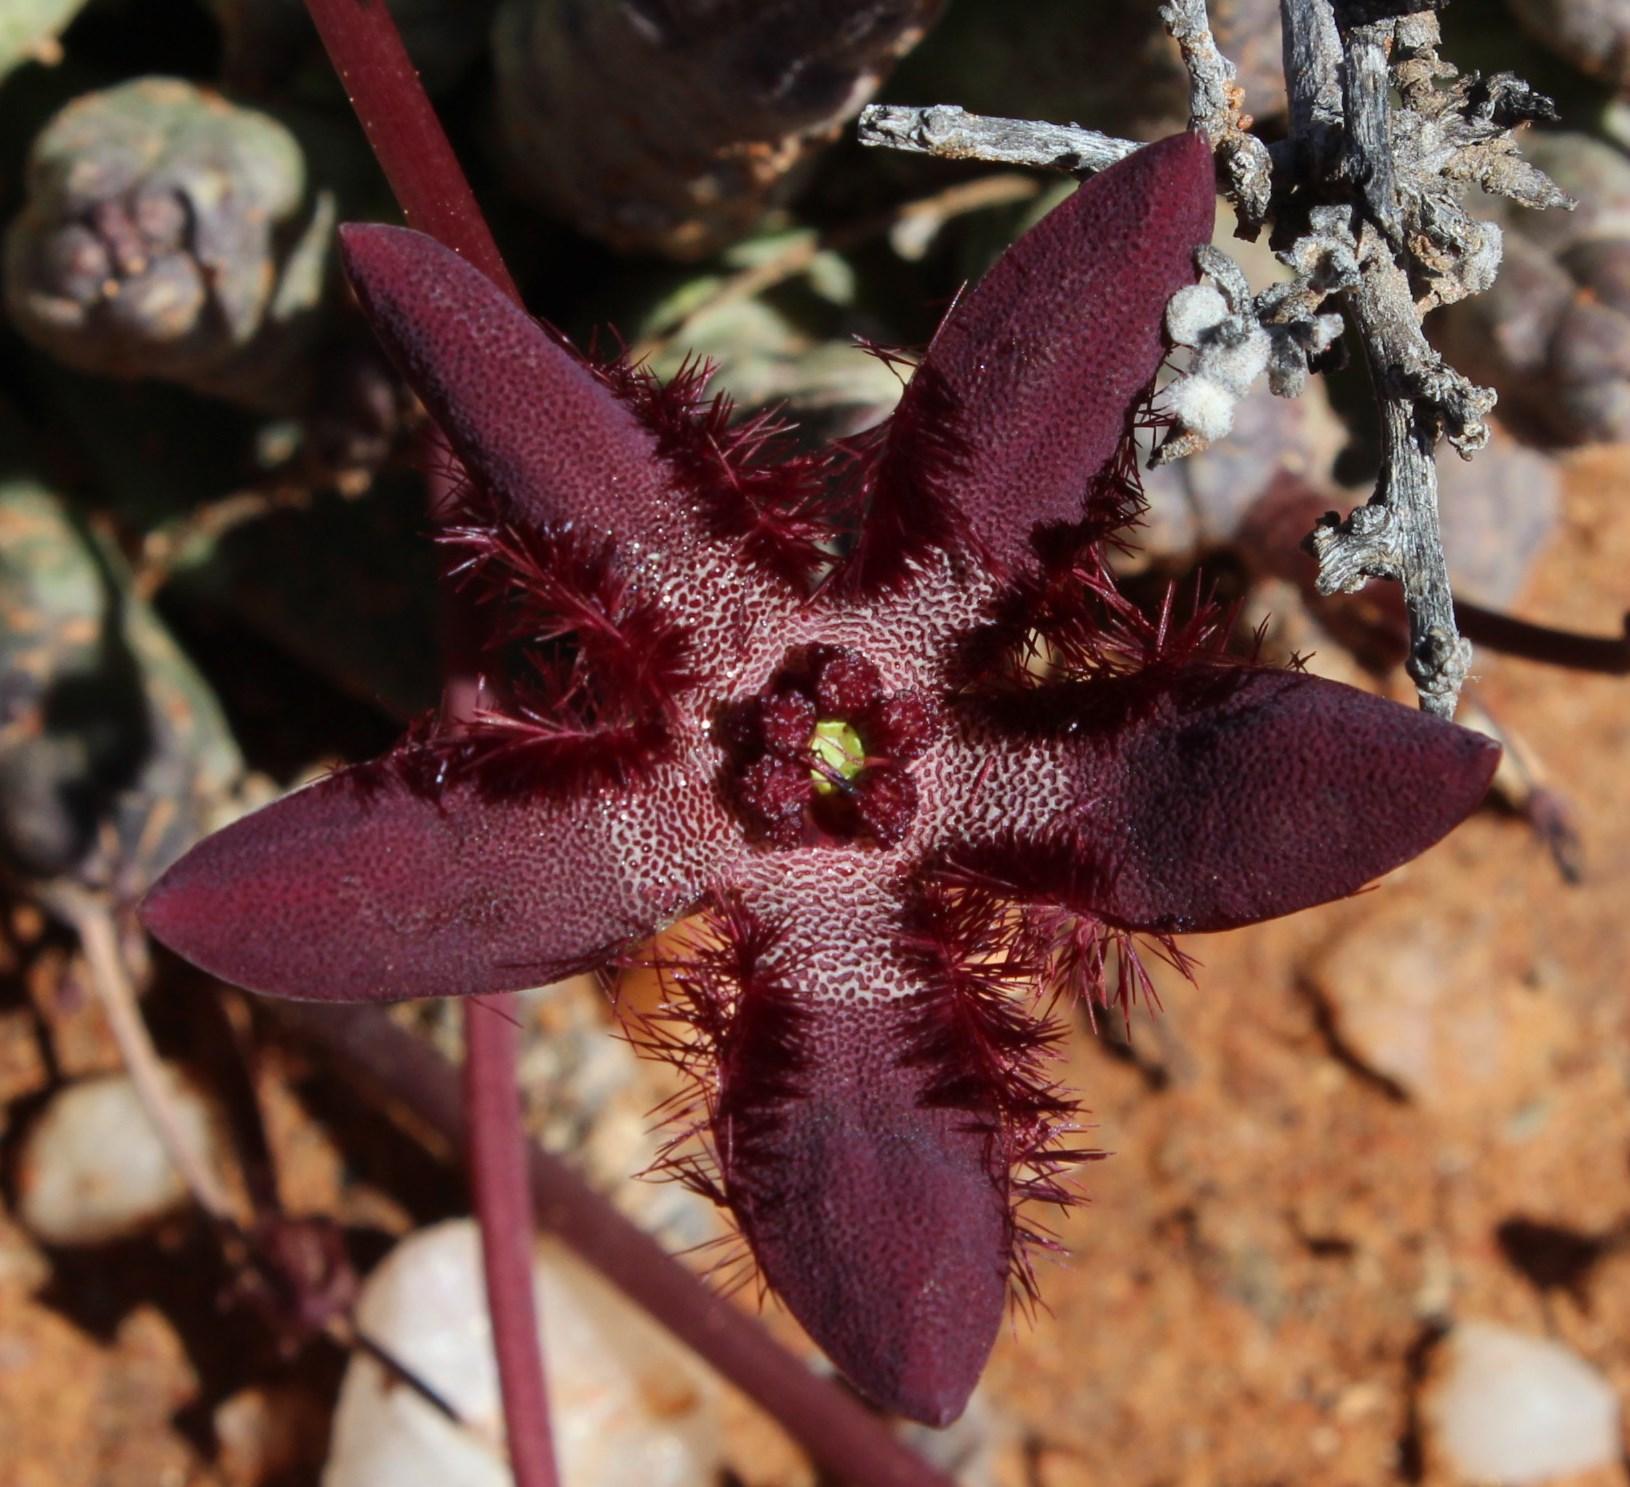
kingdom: Plantae
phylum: Tracheophyta
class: Magnoliopsida
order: Gentianales
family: Apocynaceae
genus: Ceropegia
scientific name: Ceropegia penduliflora
